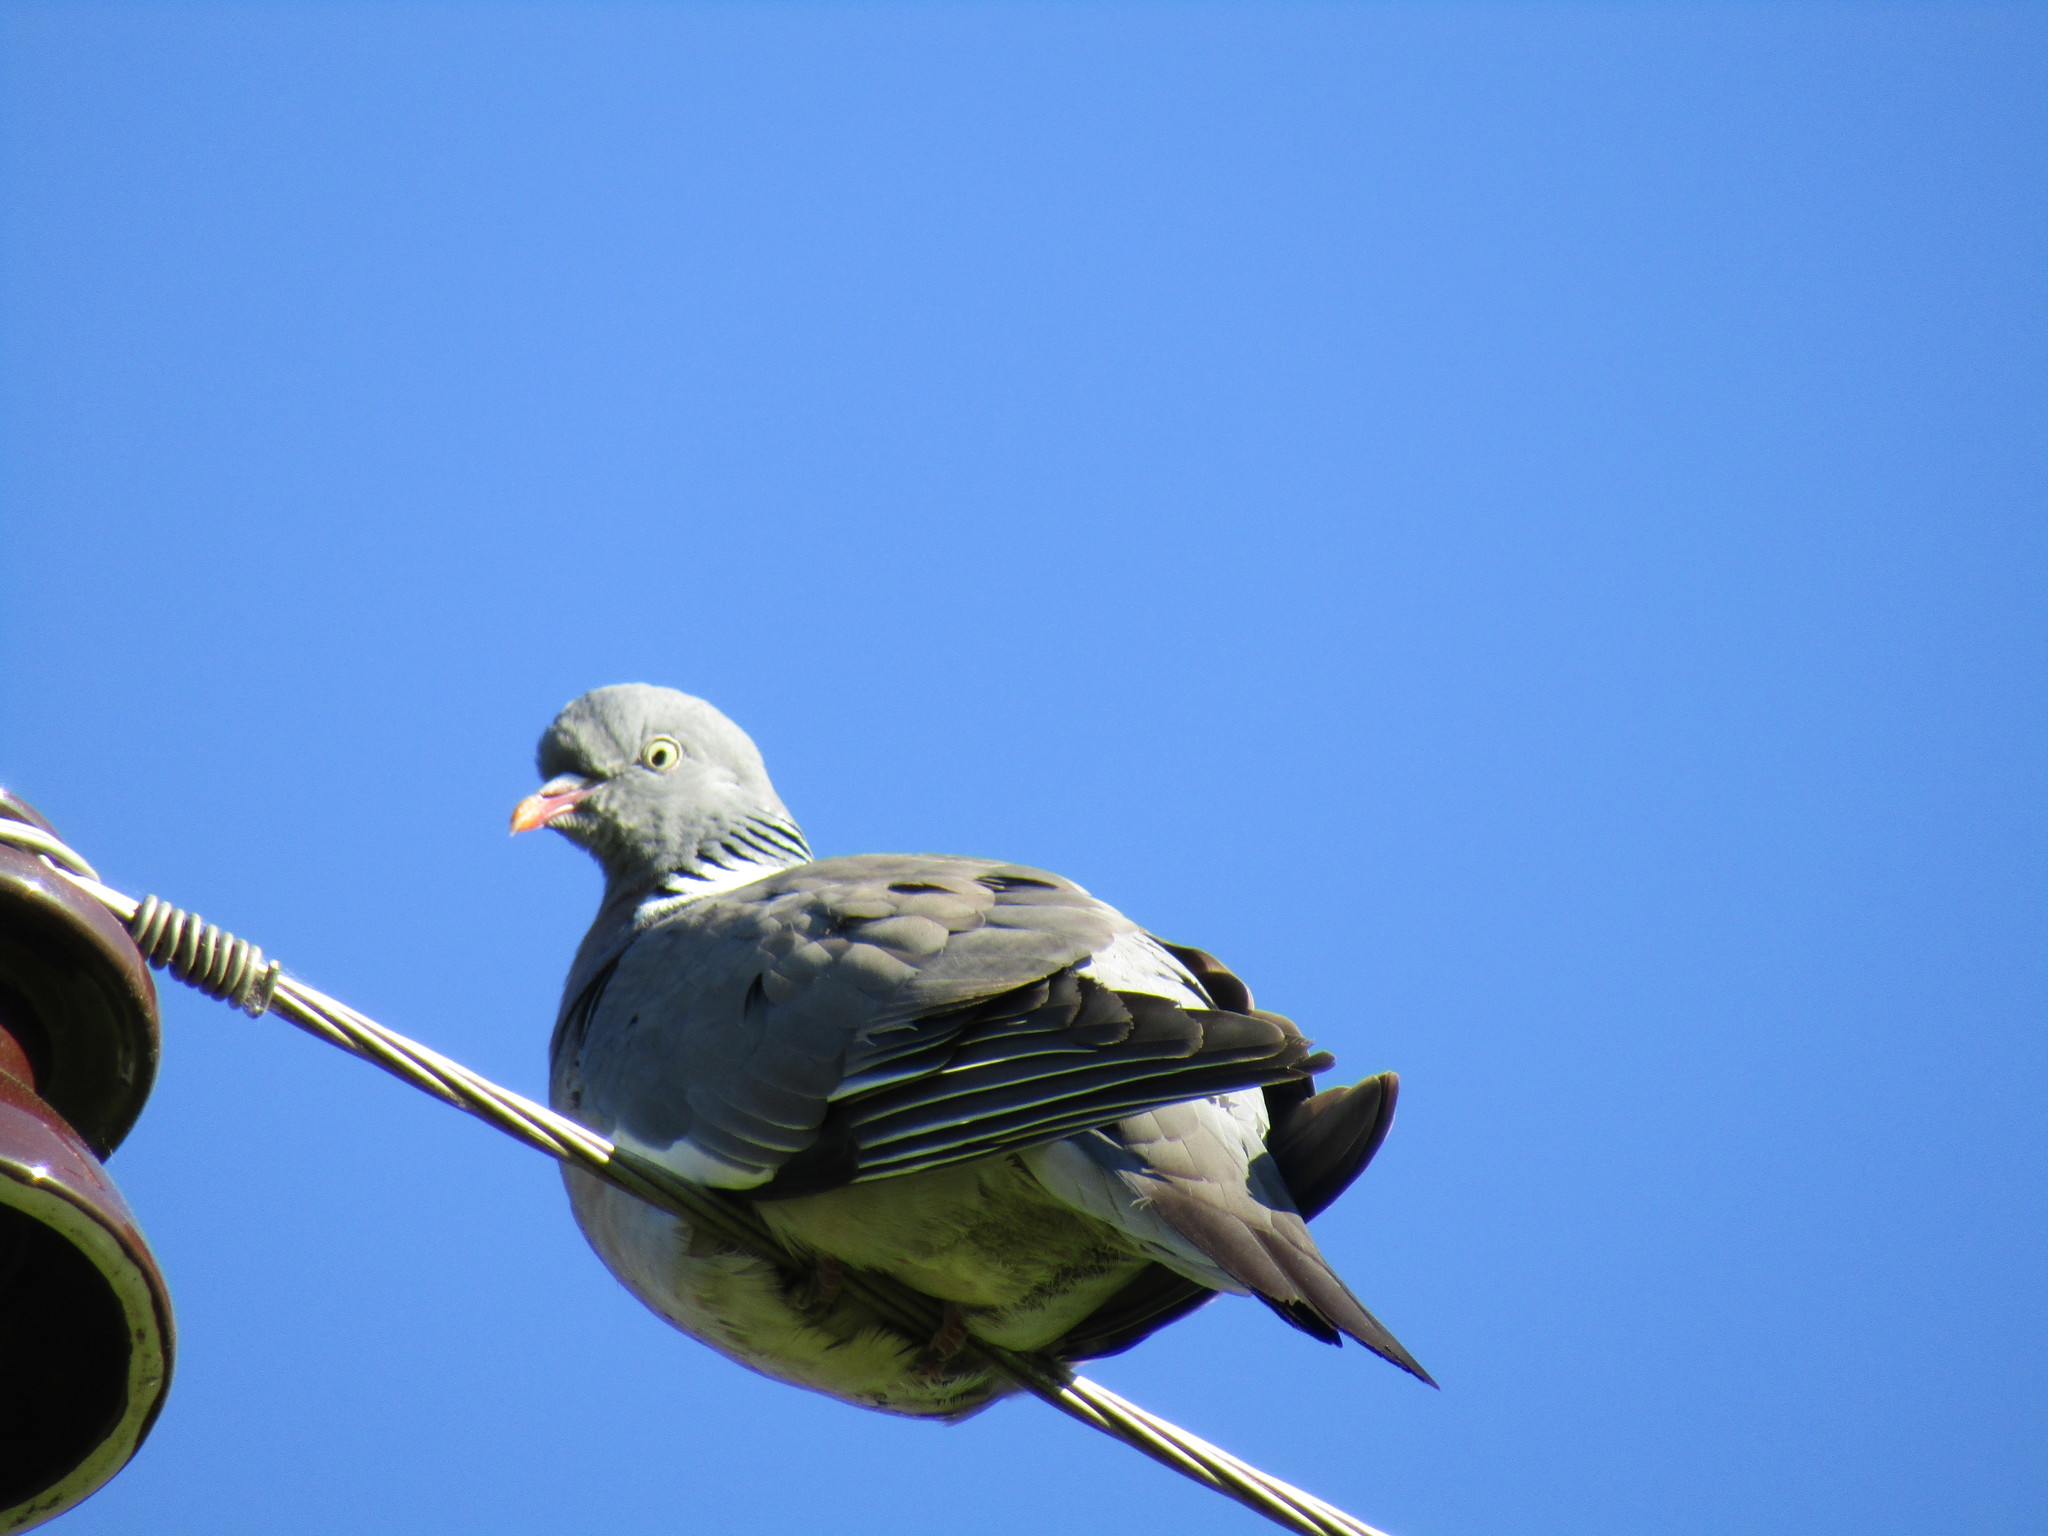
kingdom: Animalia
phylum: Chordata
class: Aves
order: Columbiformes
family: Columbidae
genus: Columba
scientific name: Columba palumbus
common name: Common wood pigeon
